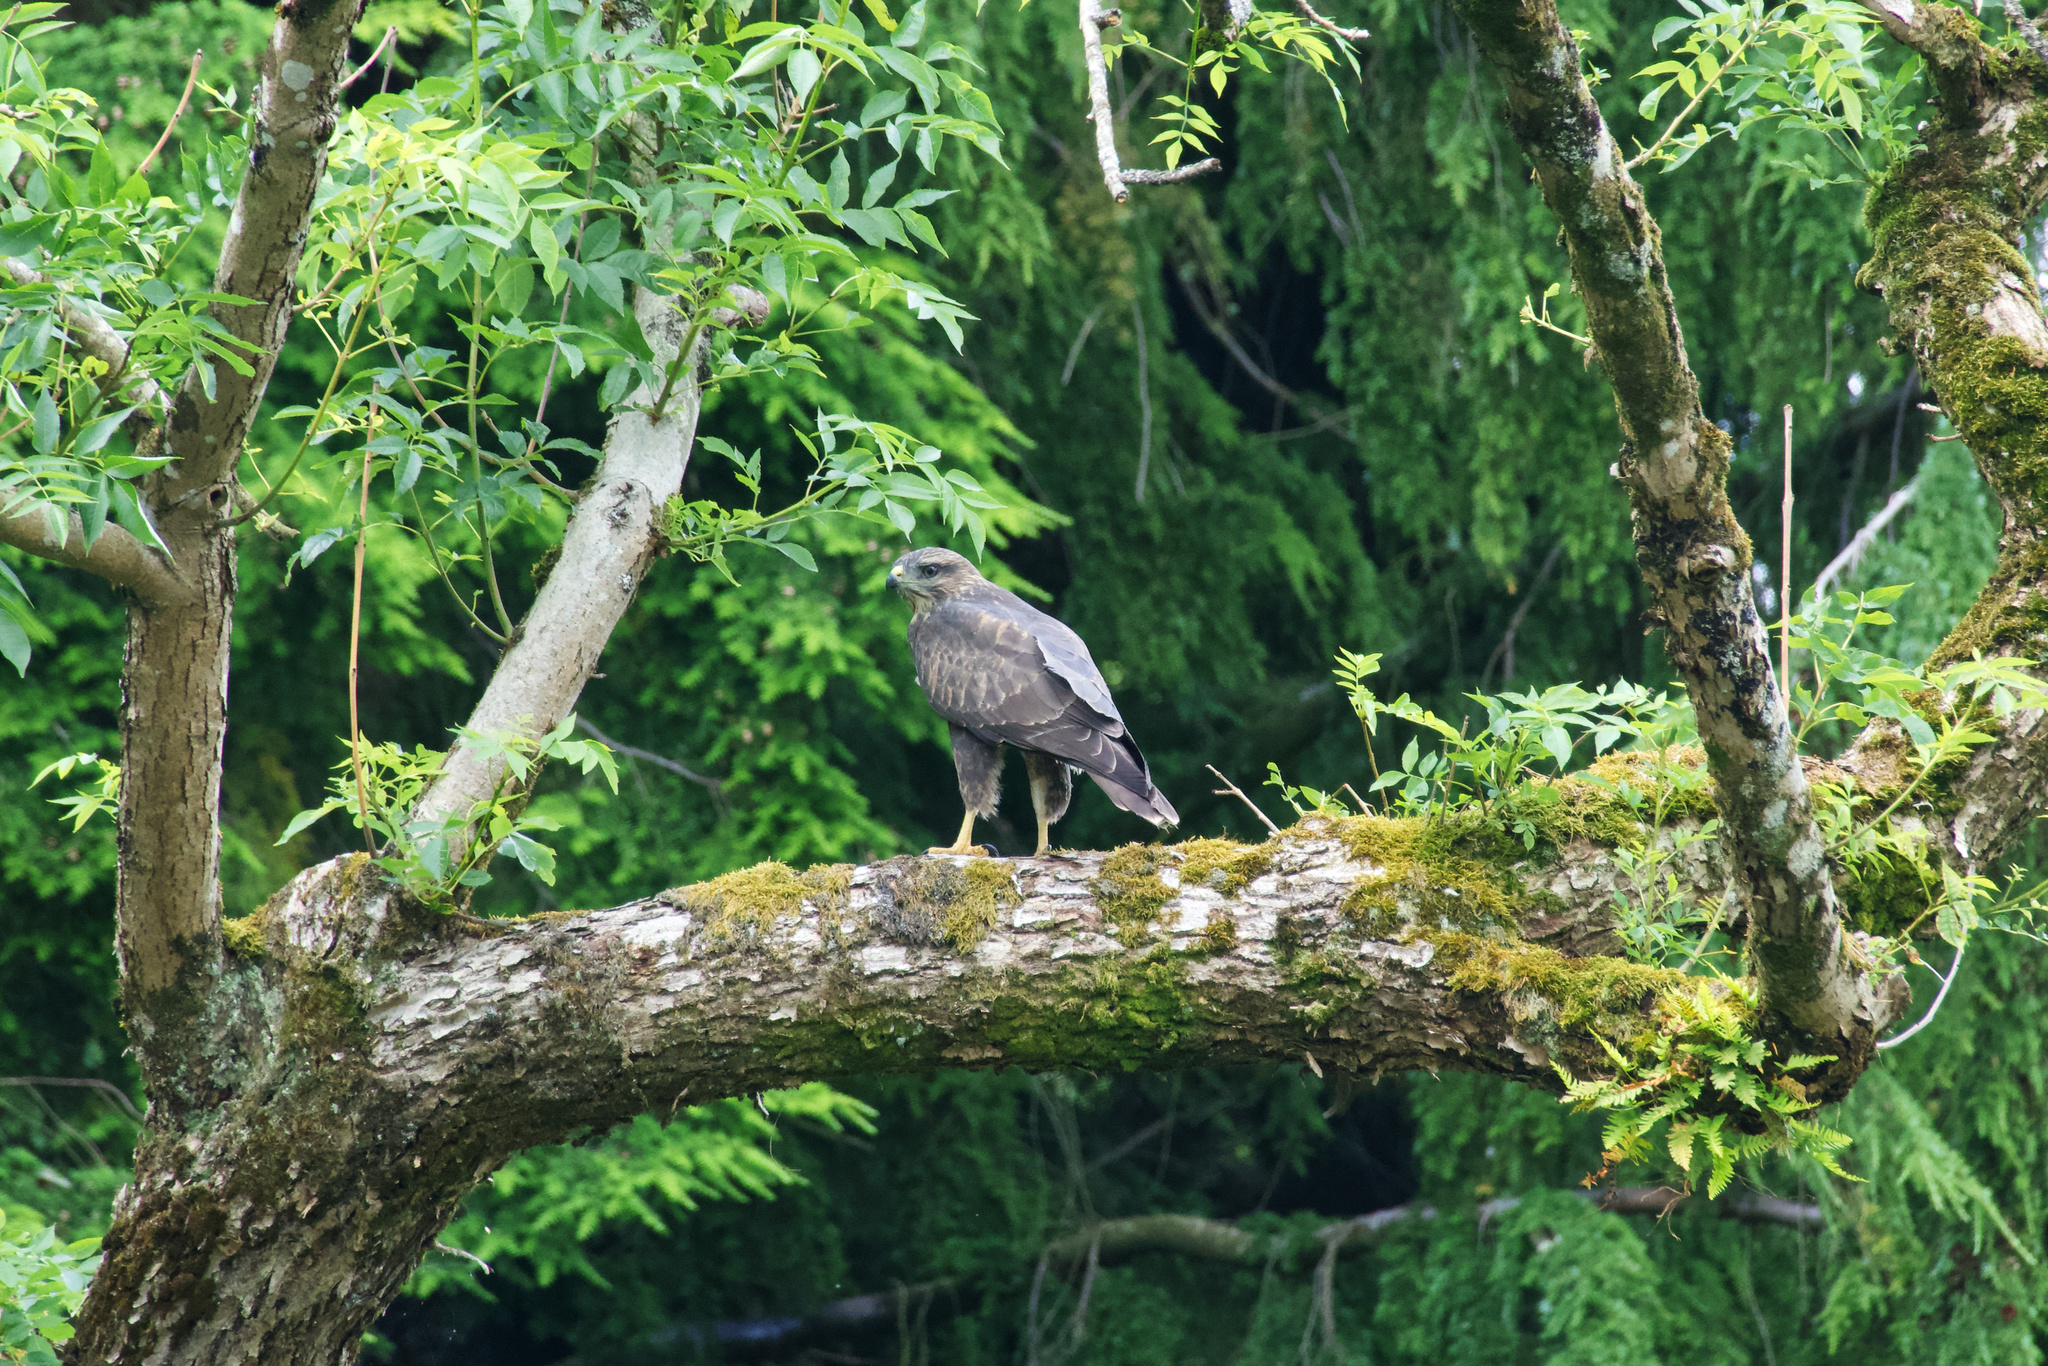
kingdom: Animalia
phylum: Chordata
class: Aves
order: Accipitriformes
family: Accipitridae
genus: Buteo
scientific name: Buteo buteo
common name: Common buzzard
